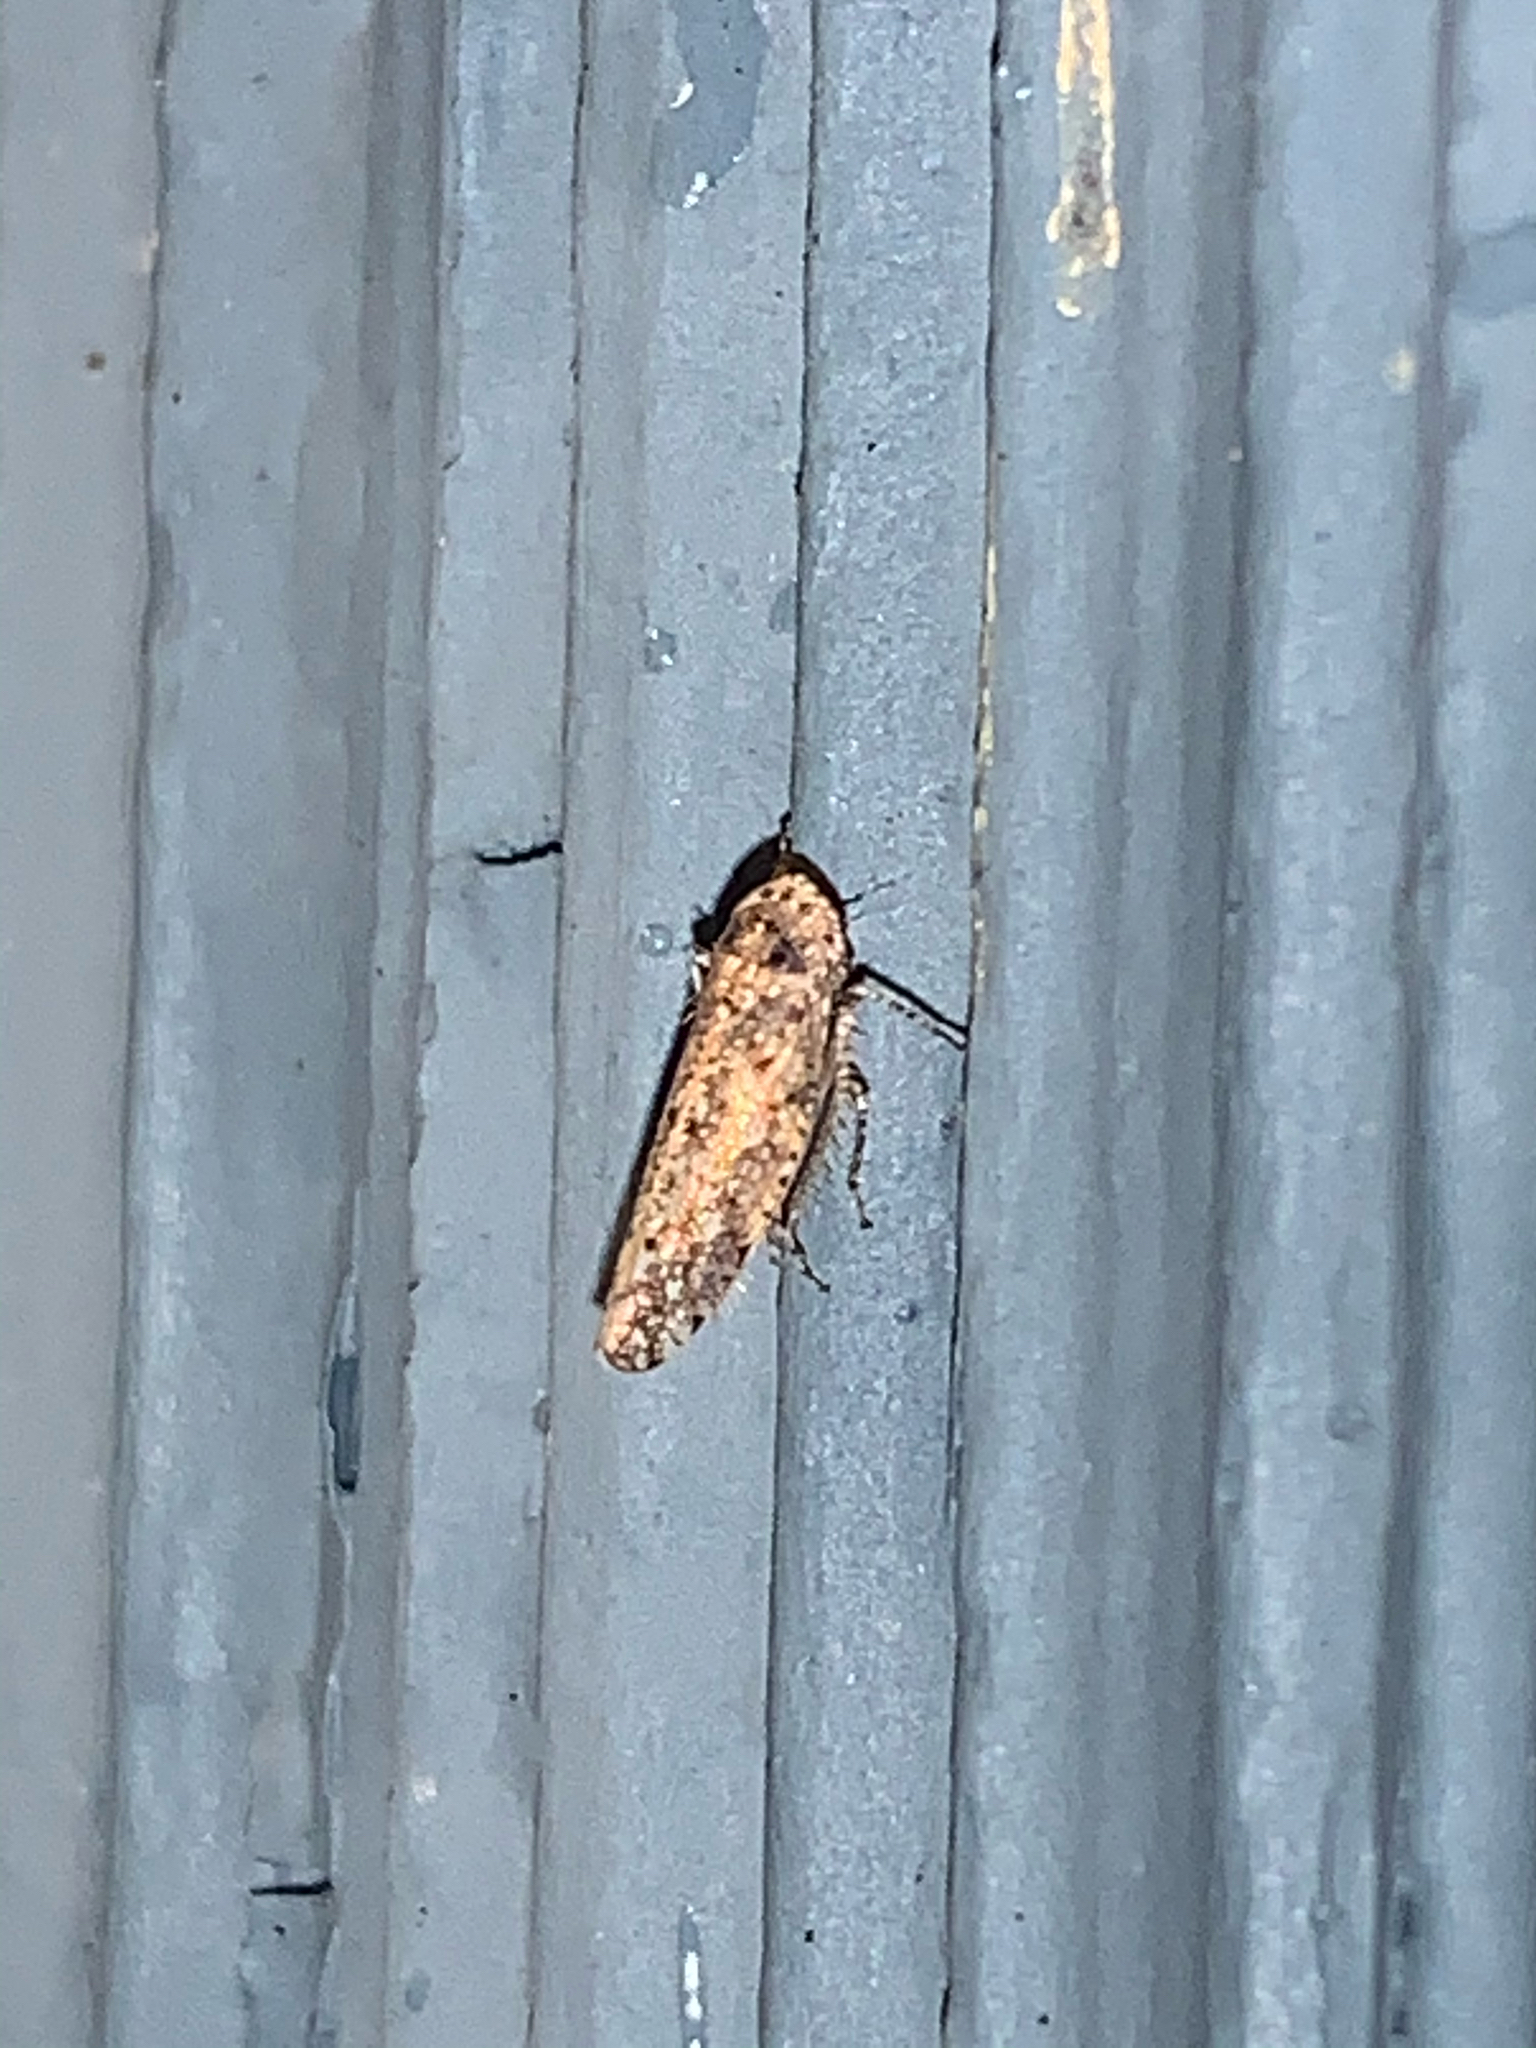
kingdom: Animalia
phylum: Arthropoda
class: Insecta
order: Hemiptera
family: Cicadellidae
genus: Paraphlepsius
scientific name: Paraphlepsius
